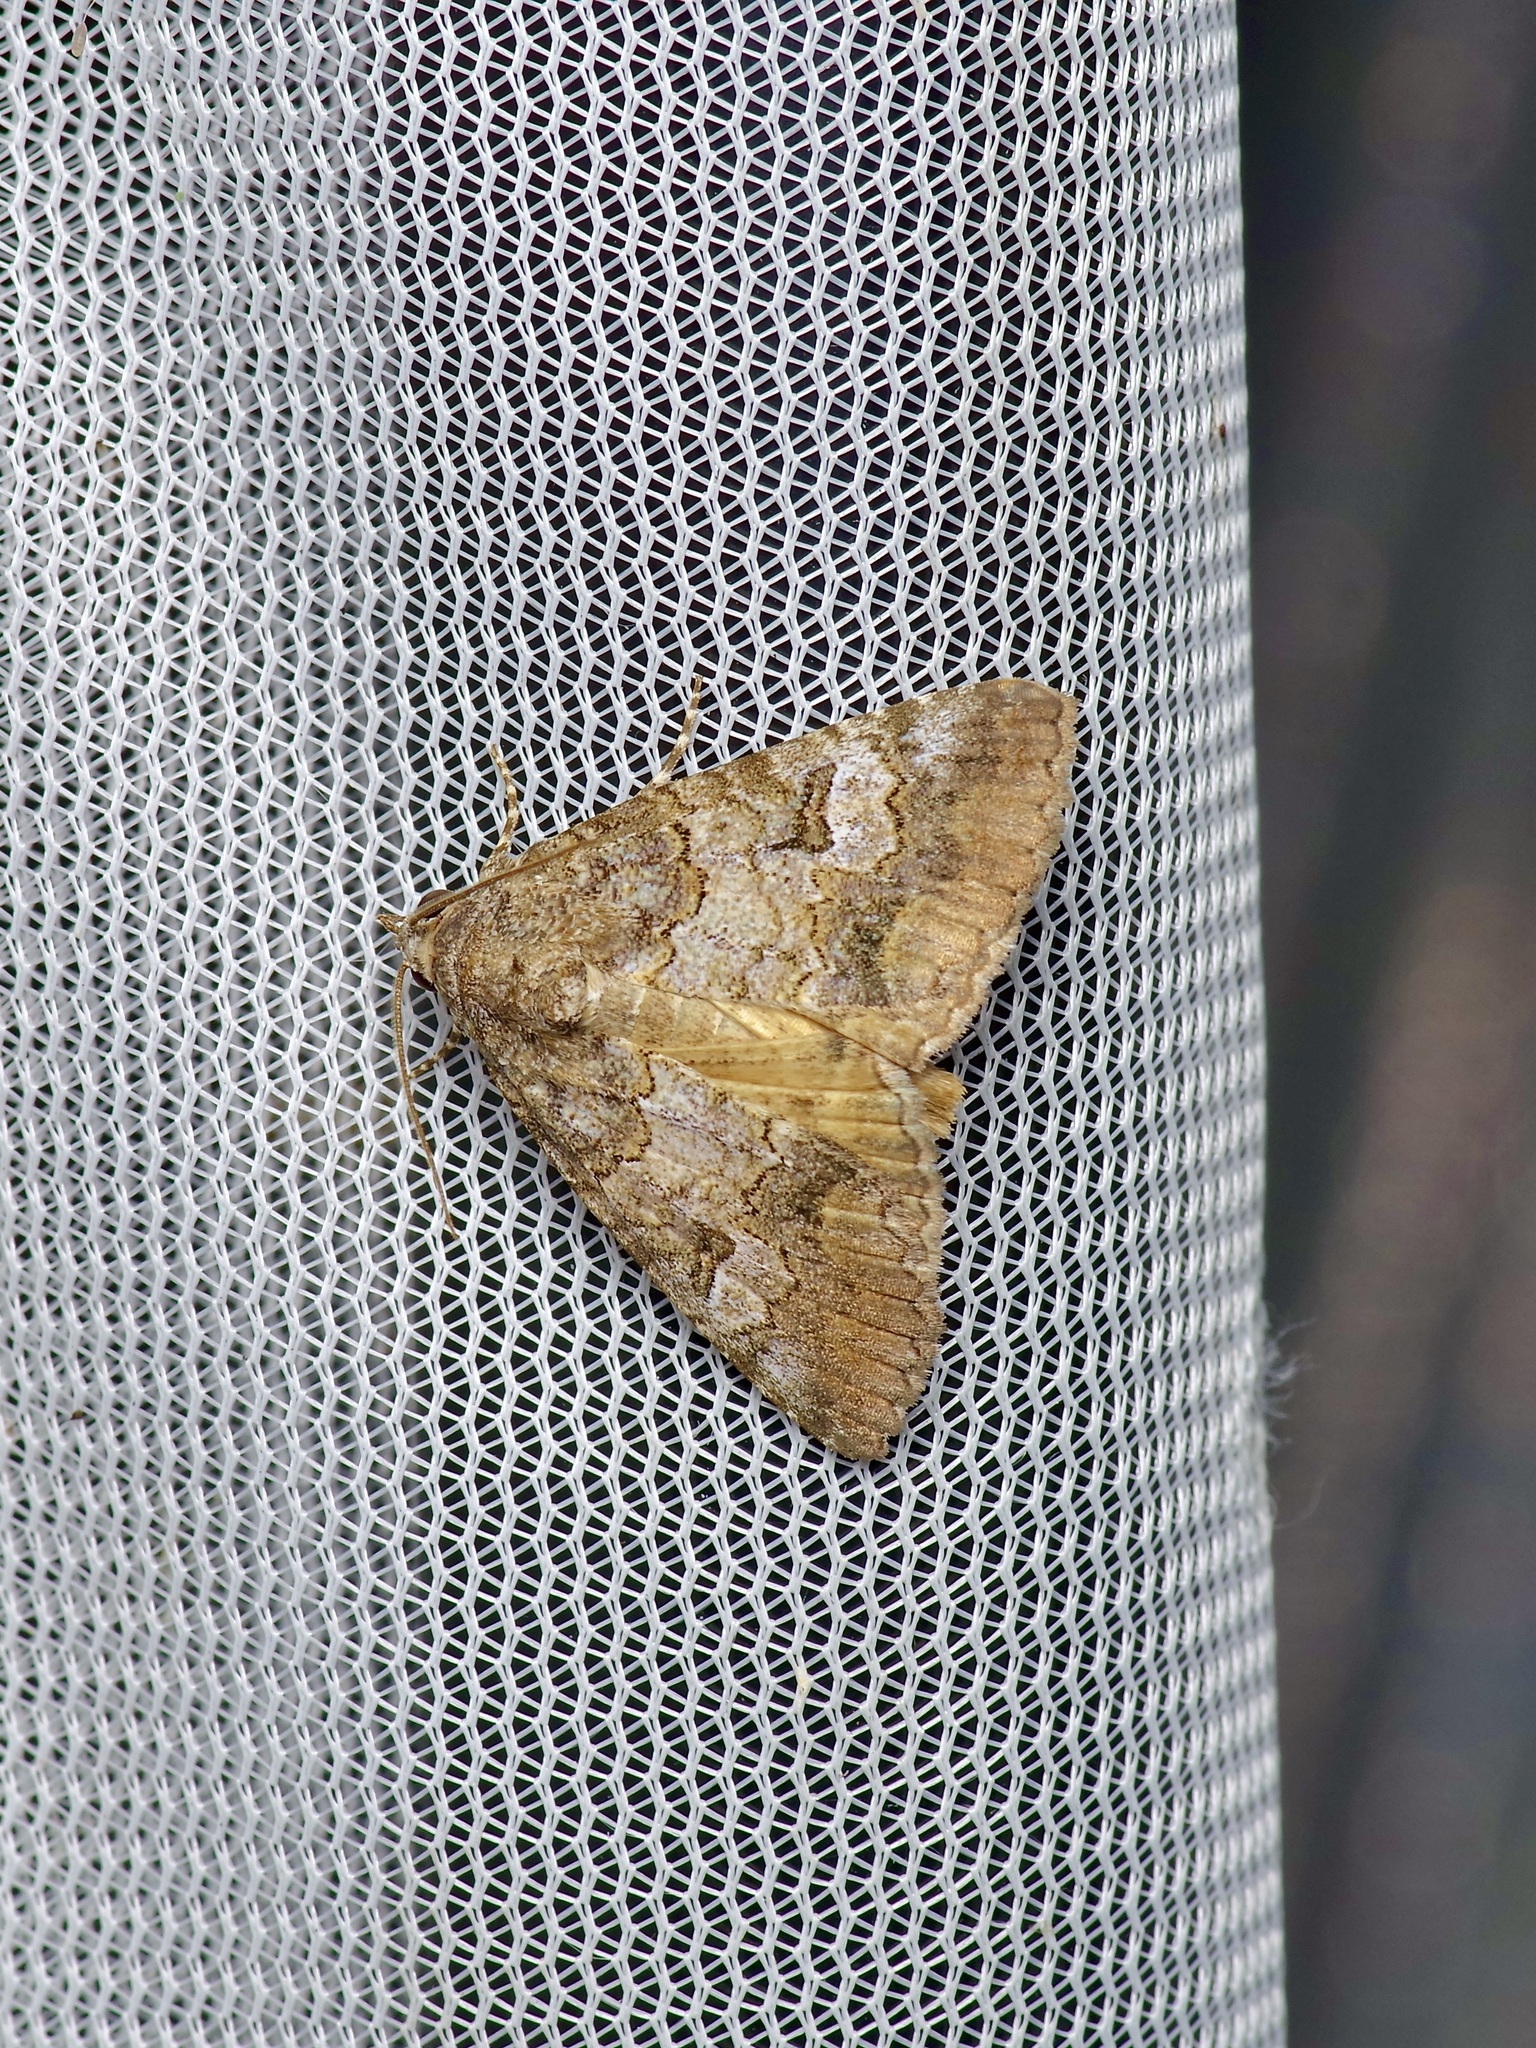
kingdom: Animalia
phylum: Arthropoda
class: Insecta
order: Lepidoptera
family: Erebidae
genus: Eubolina
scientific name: Eubolina impartialis
